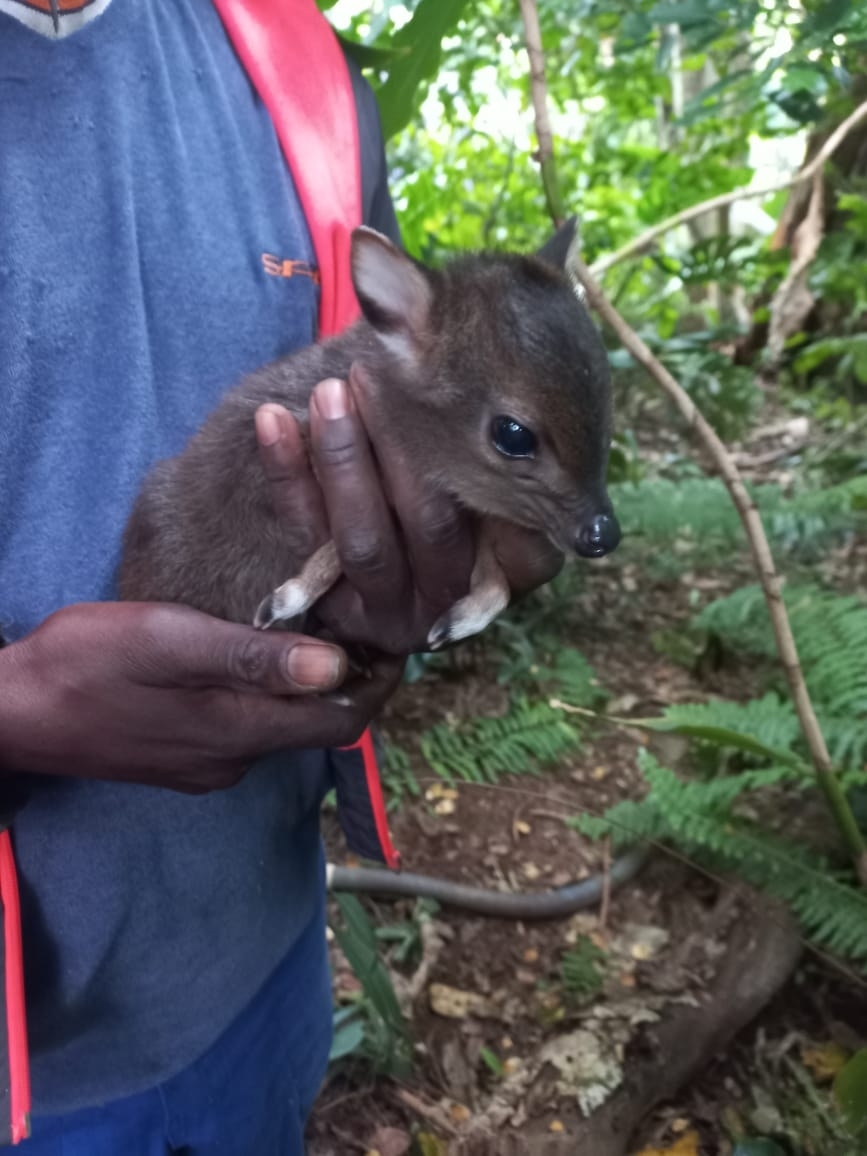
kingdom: Animalia
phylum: Chordata
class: Mammalia
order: Artiodactyla
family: Bovidae
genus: Philantomba
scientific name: Philantomba monticola
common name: Blue duiker
